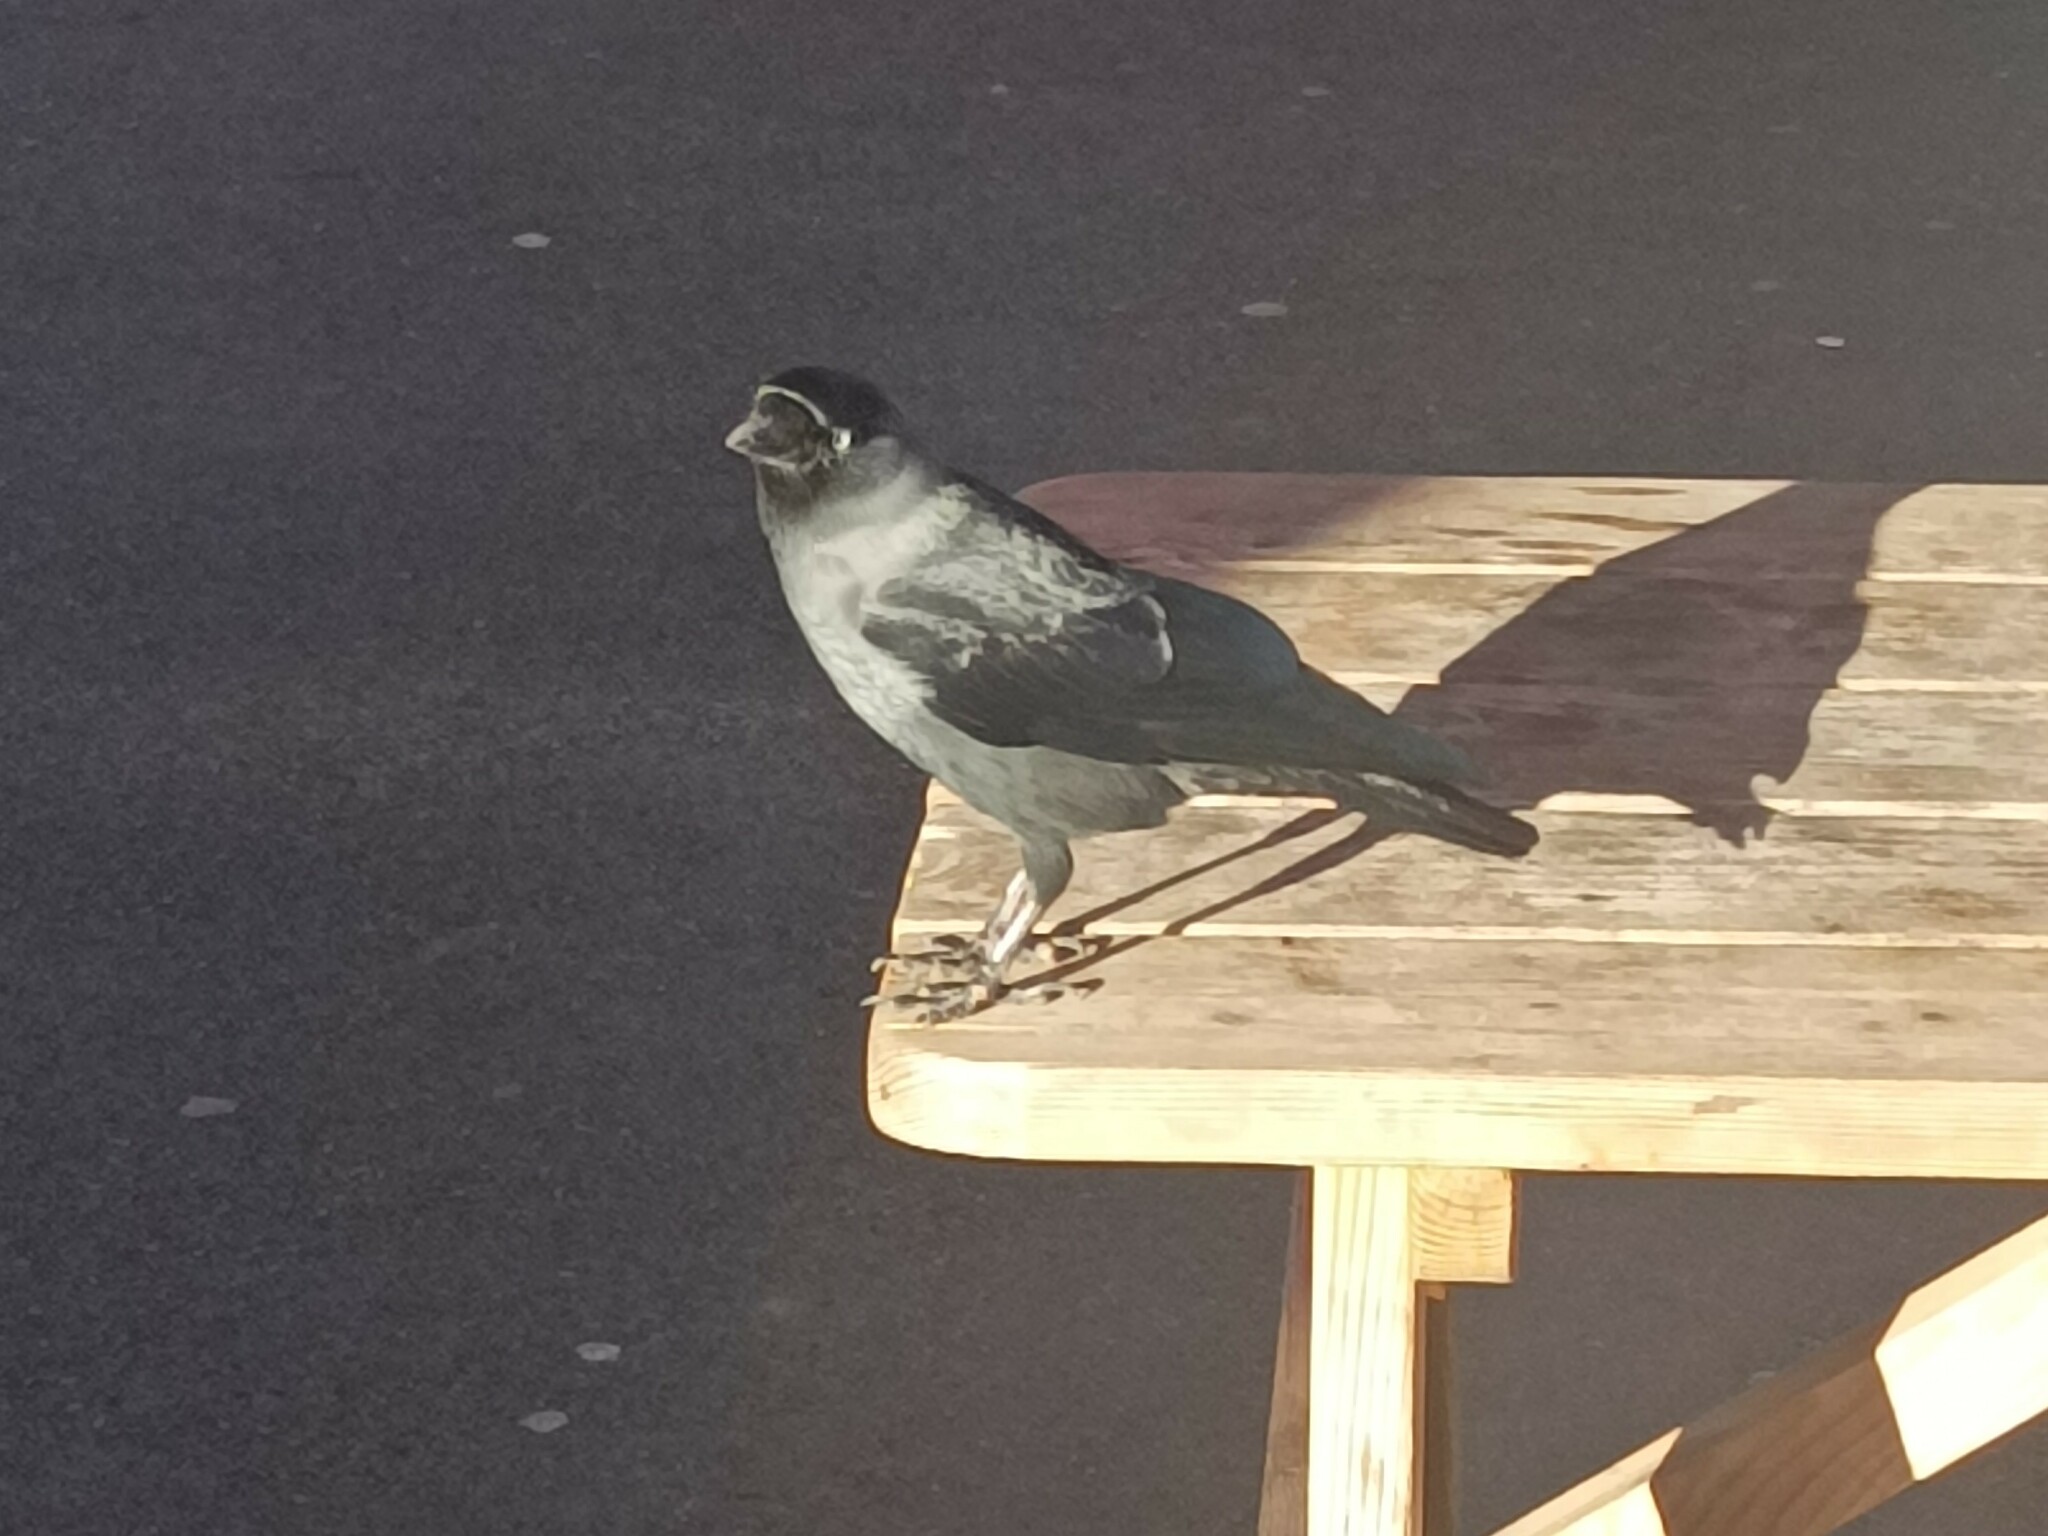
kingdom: Animalia
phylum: Chordata
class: Aves
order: Passeriformes
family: Corvidae
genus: Coloeus
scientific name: Coloeus monedula
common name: Western jackdaw
